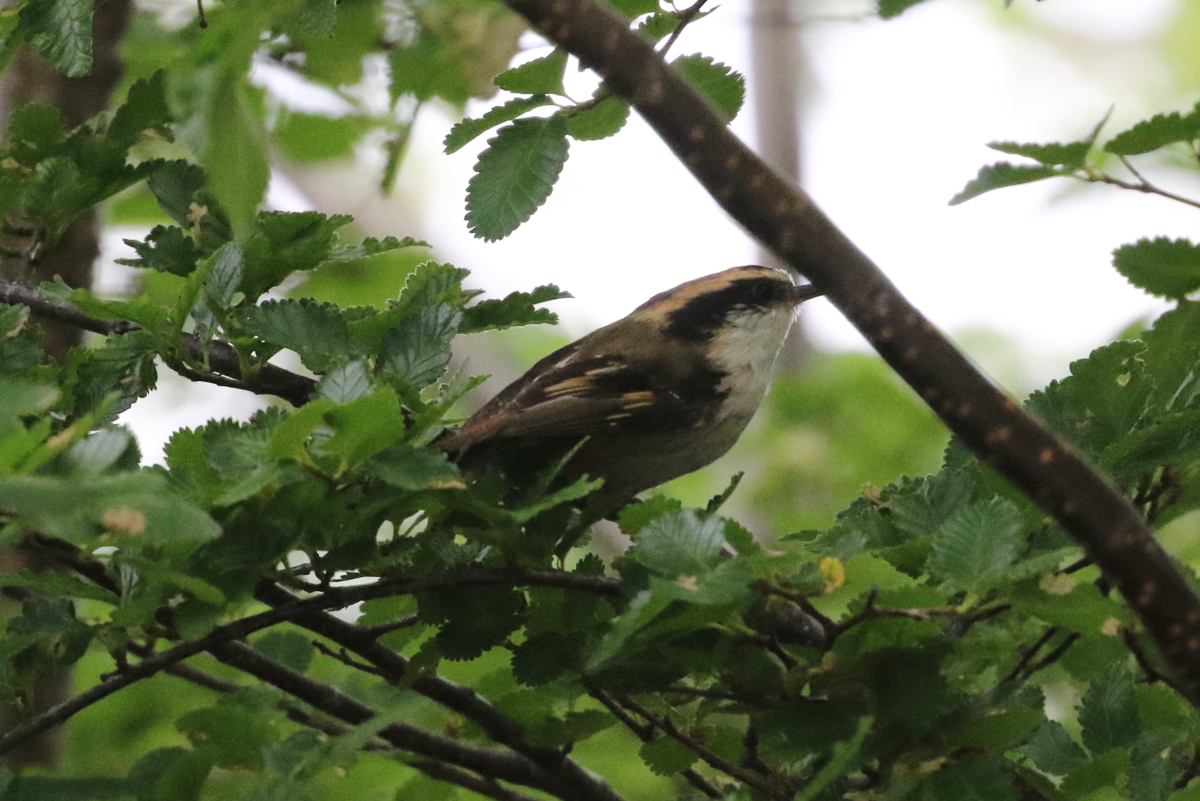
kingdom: Animalia
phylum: Chordata
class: Aves
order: Passeriformes
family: Furnariidae
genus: Aphrastura
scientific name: Aphrastura spinicauda
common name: Thorn-tailed rayadito
